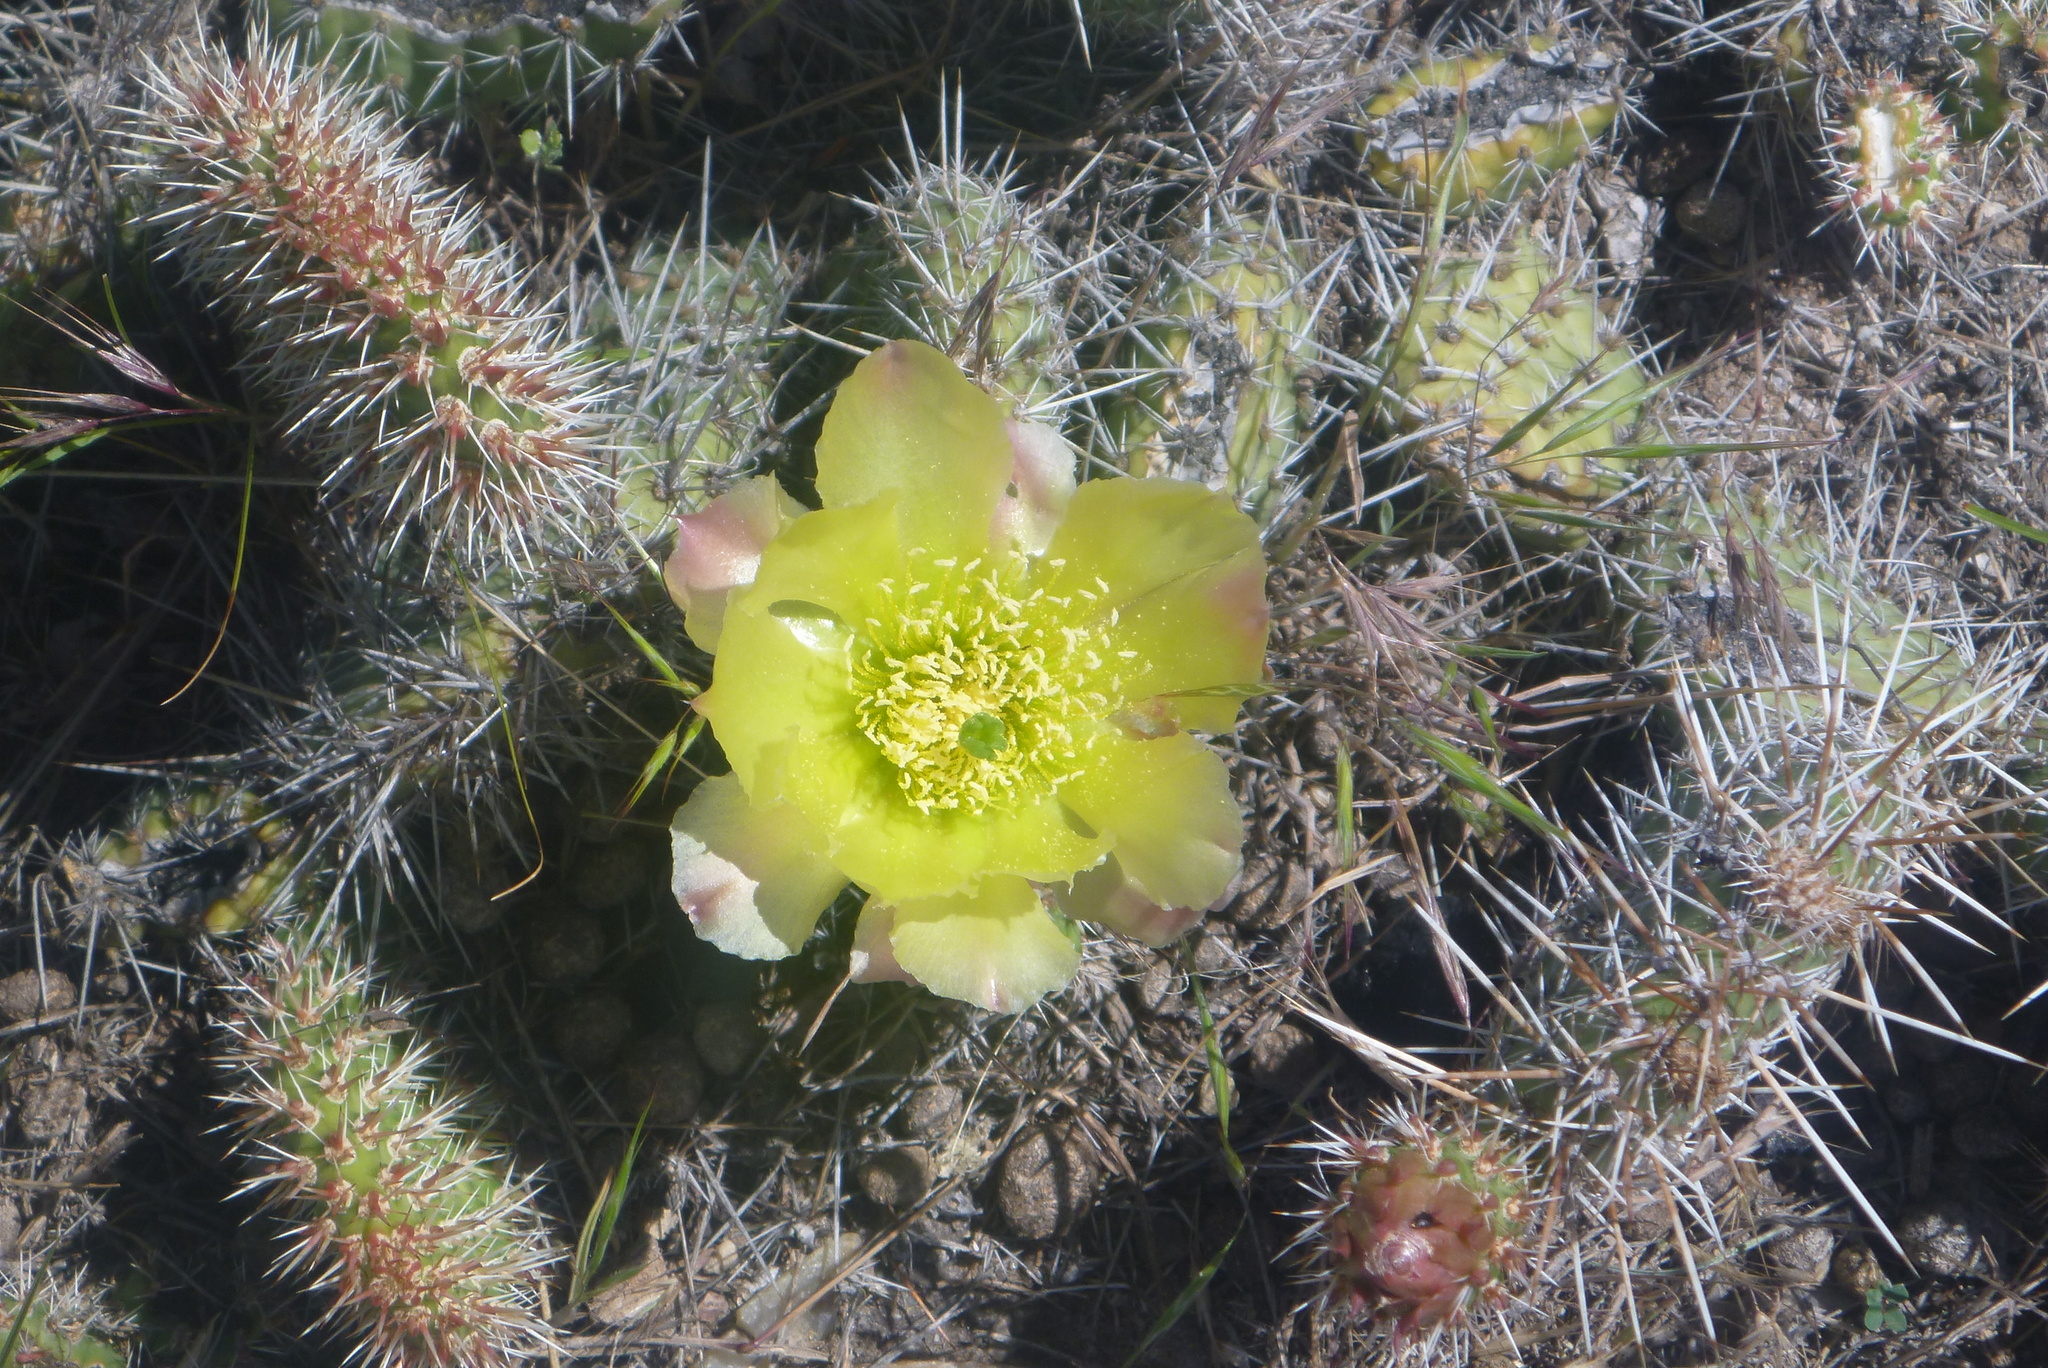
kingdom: Plantae
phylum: Tracheophyta
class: Magnoliopsida
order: Caryophyllales
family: Cactaceae
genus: Opuntia
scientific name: Opuntia polyacantha
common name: Plains prickly-pear
